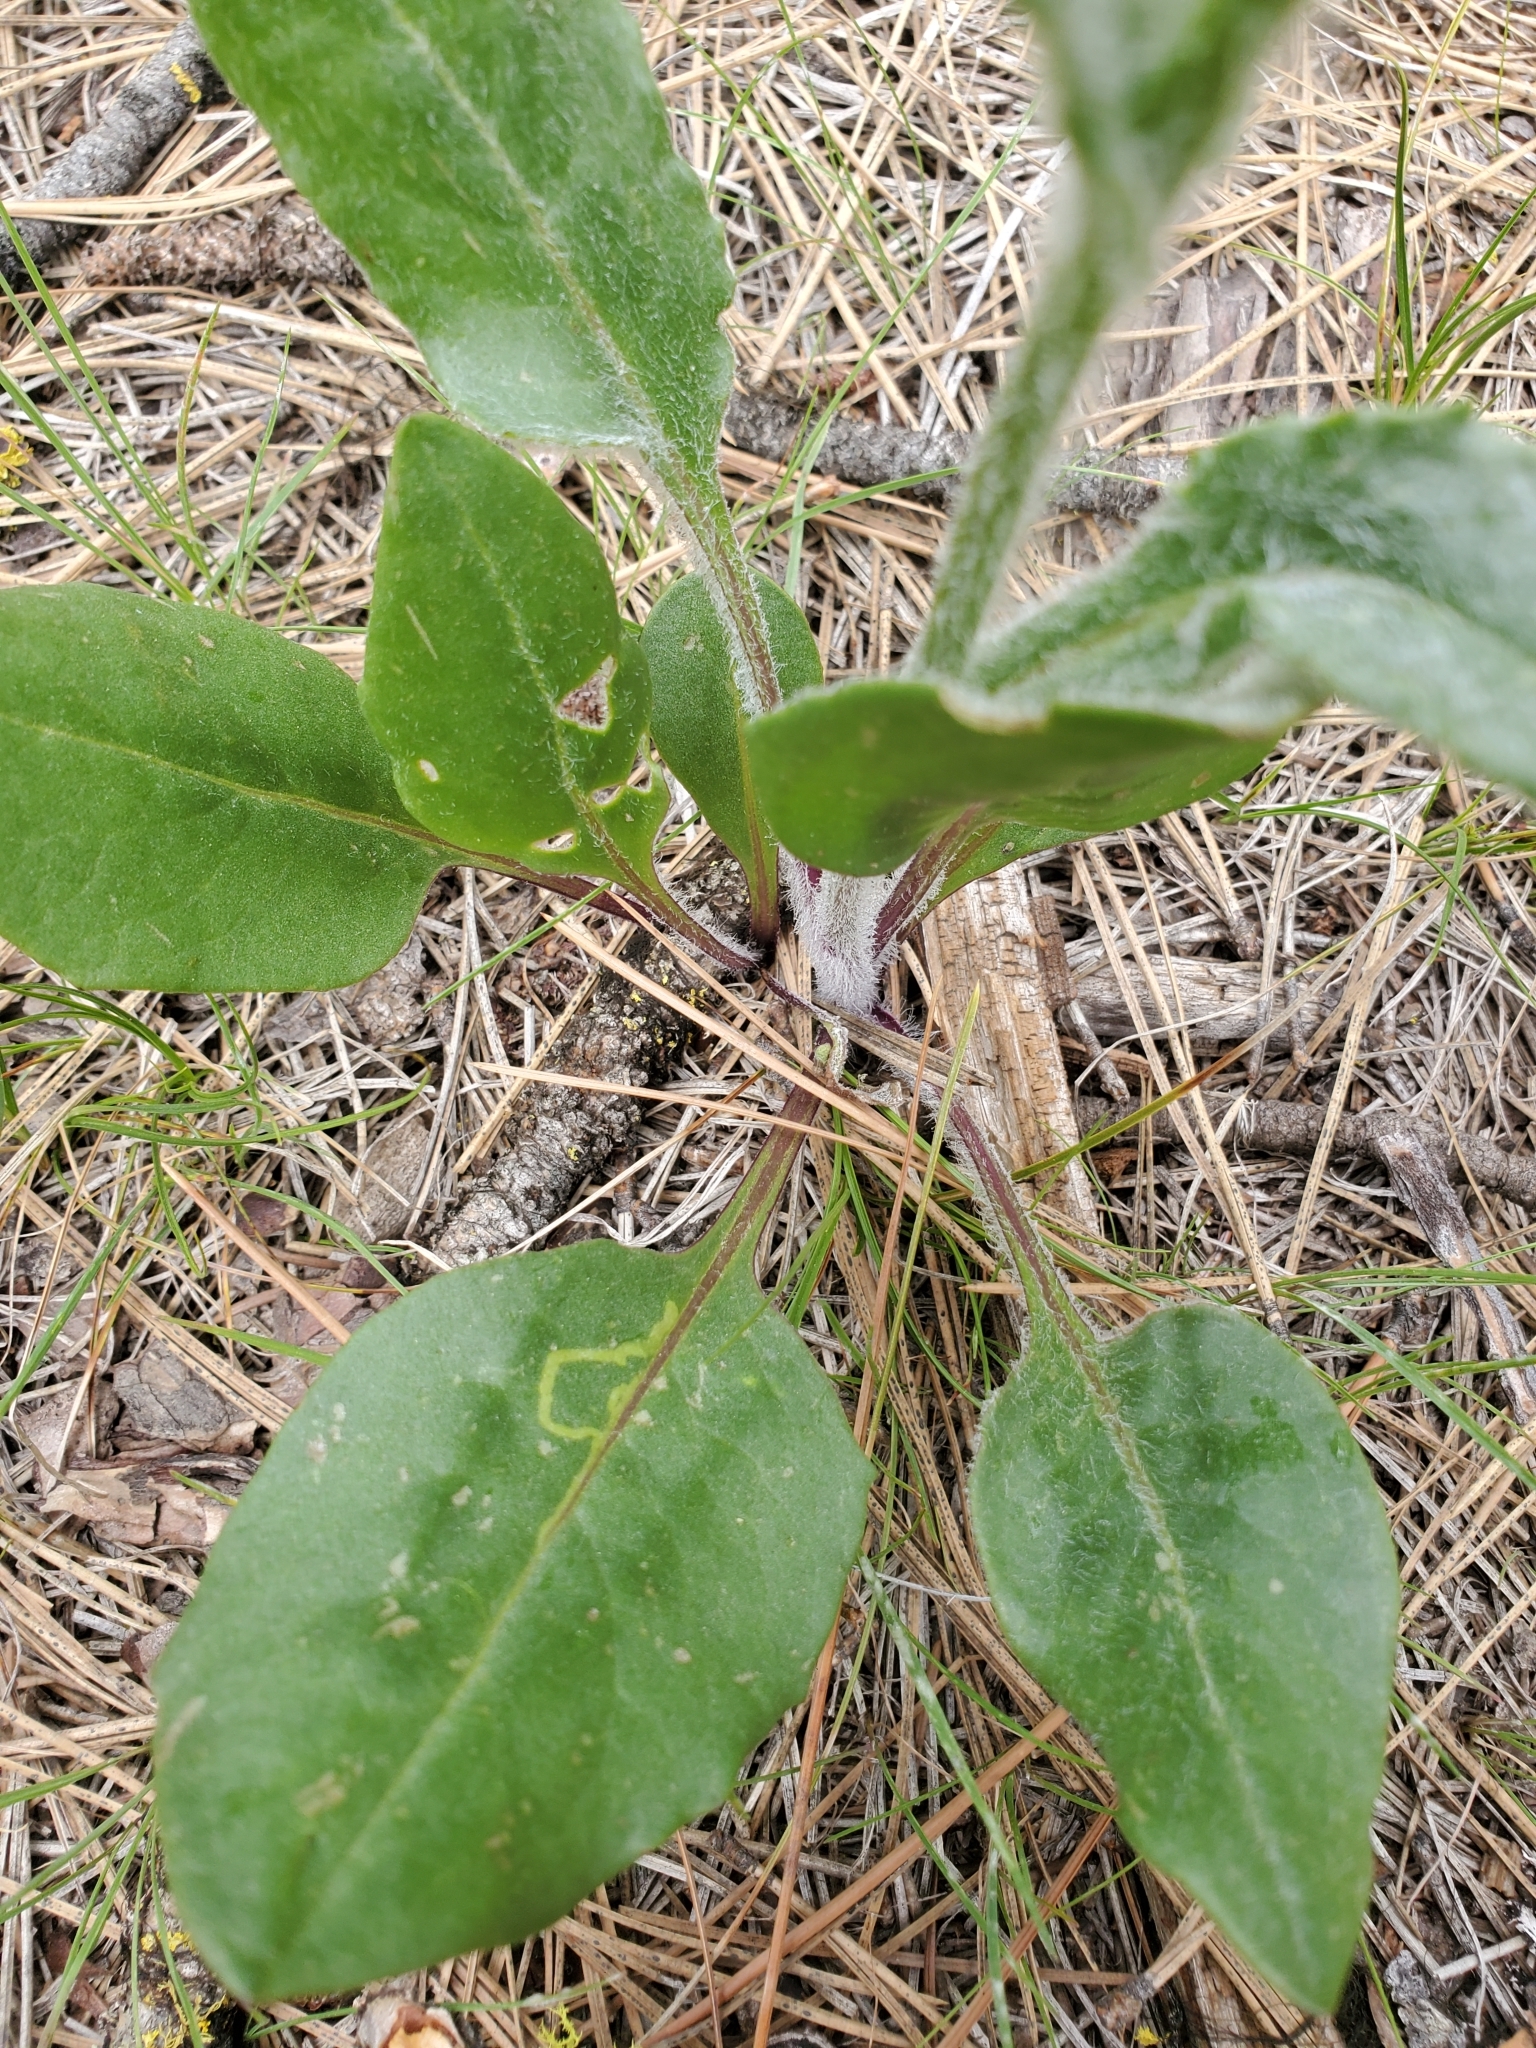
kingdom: Plantae
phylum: Tracheophyta
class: Magnoliopsida
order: Asterales
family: Asteraceae
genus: Senecio
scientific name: Senecio integerrimus
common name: Gaugeplant
